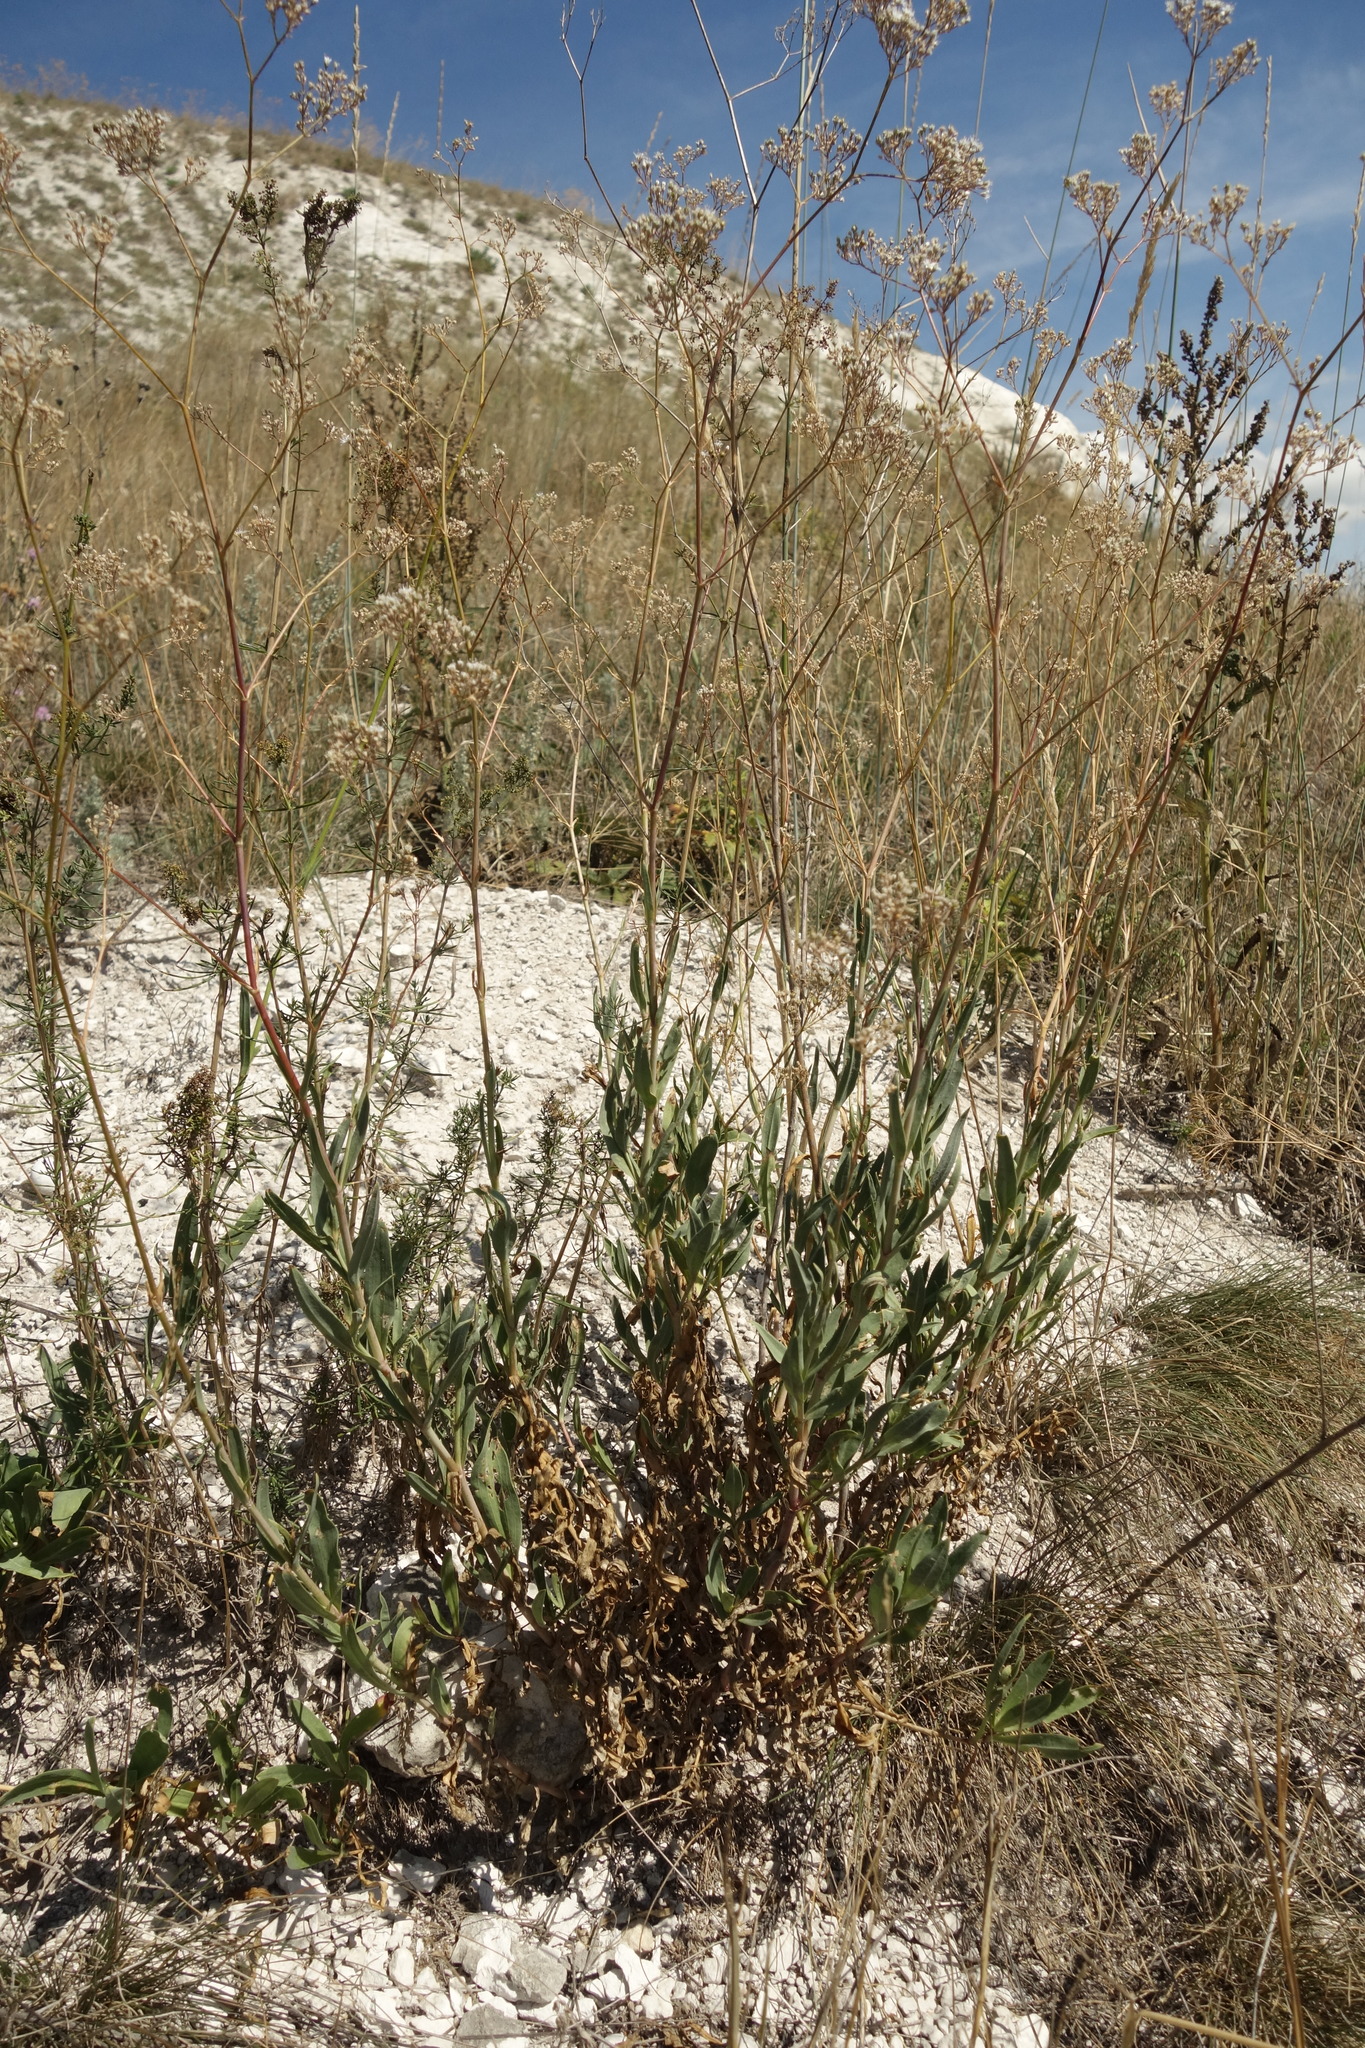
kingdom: Plantae
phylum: Tracheophyta
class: Magnoliopsida
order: Caryophyllales
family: Caryophyllaceae
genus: Gypsophila
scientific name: Gypsophila altissima
